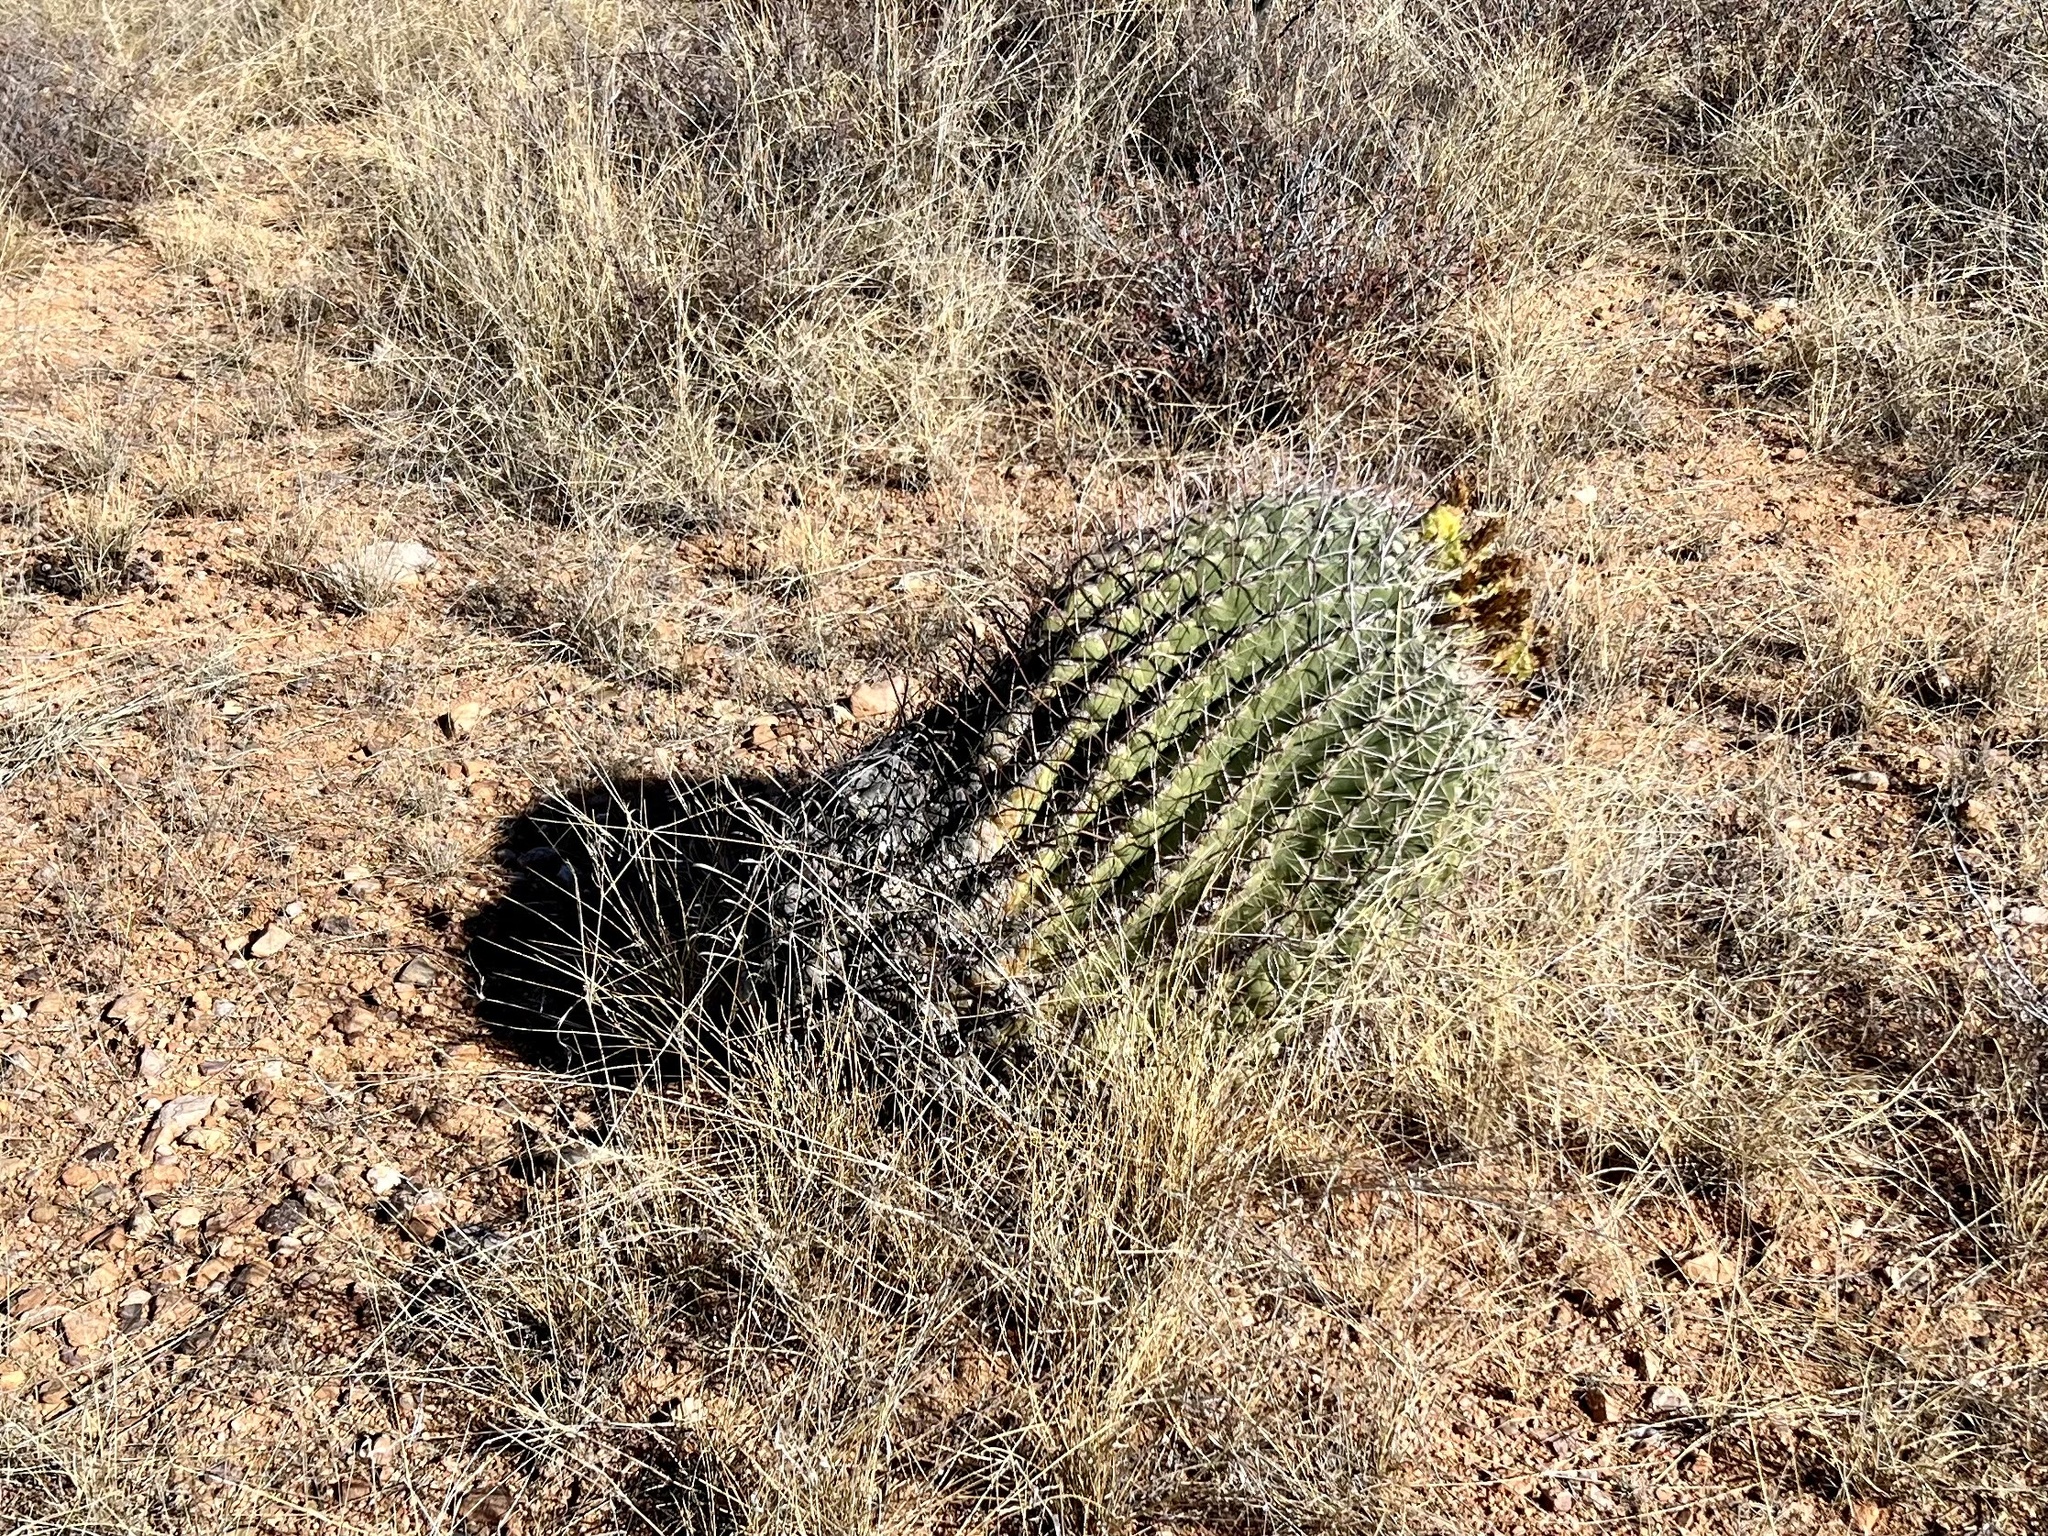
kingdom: Plantae
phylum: Tracheophyta
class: Magnoliopsida
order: Caryophyllales
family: Cactaceae
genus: Ferocactus
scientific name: Ferocactus wislizeni
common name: Candy barrel cactus
